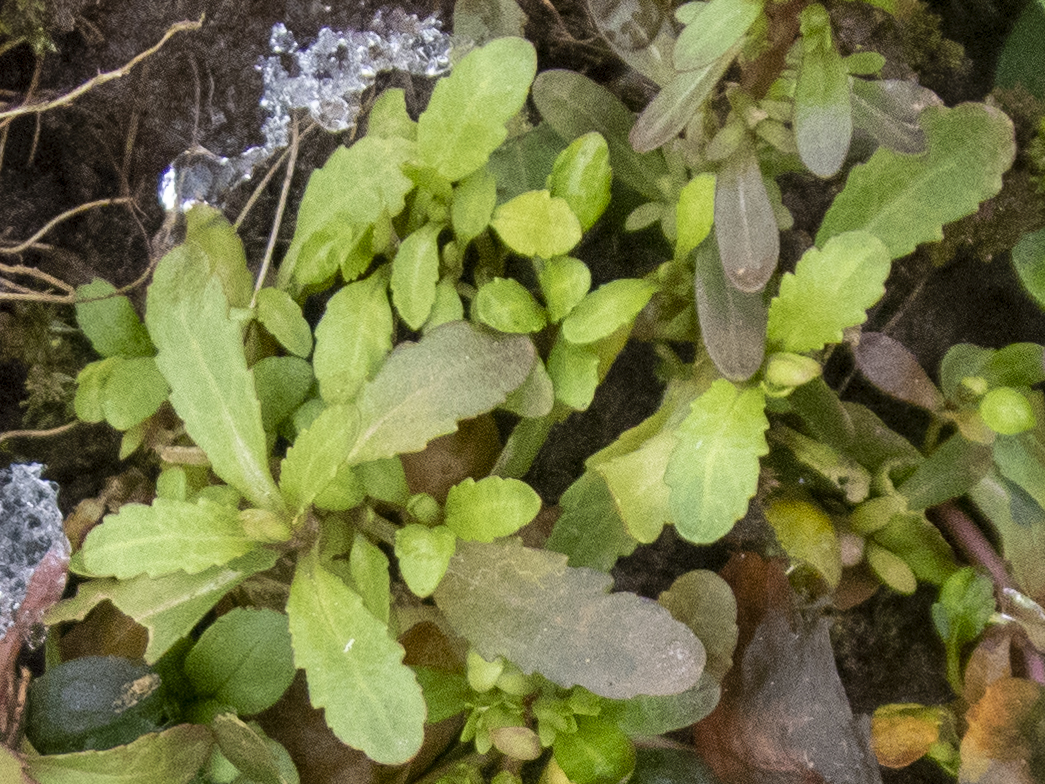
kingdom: Plantae
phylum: Tracheophyta
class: Magnoliopsida
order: Lamiales
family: Plantaginaceae
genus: Veronica
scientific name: Veronica peregrina
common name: Neckweed
